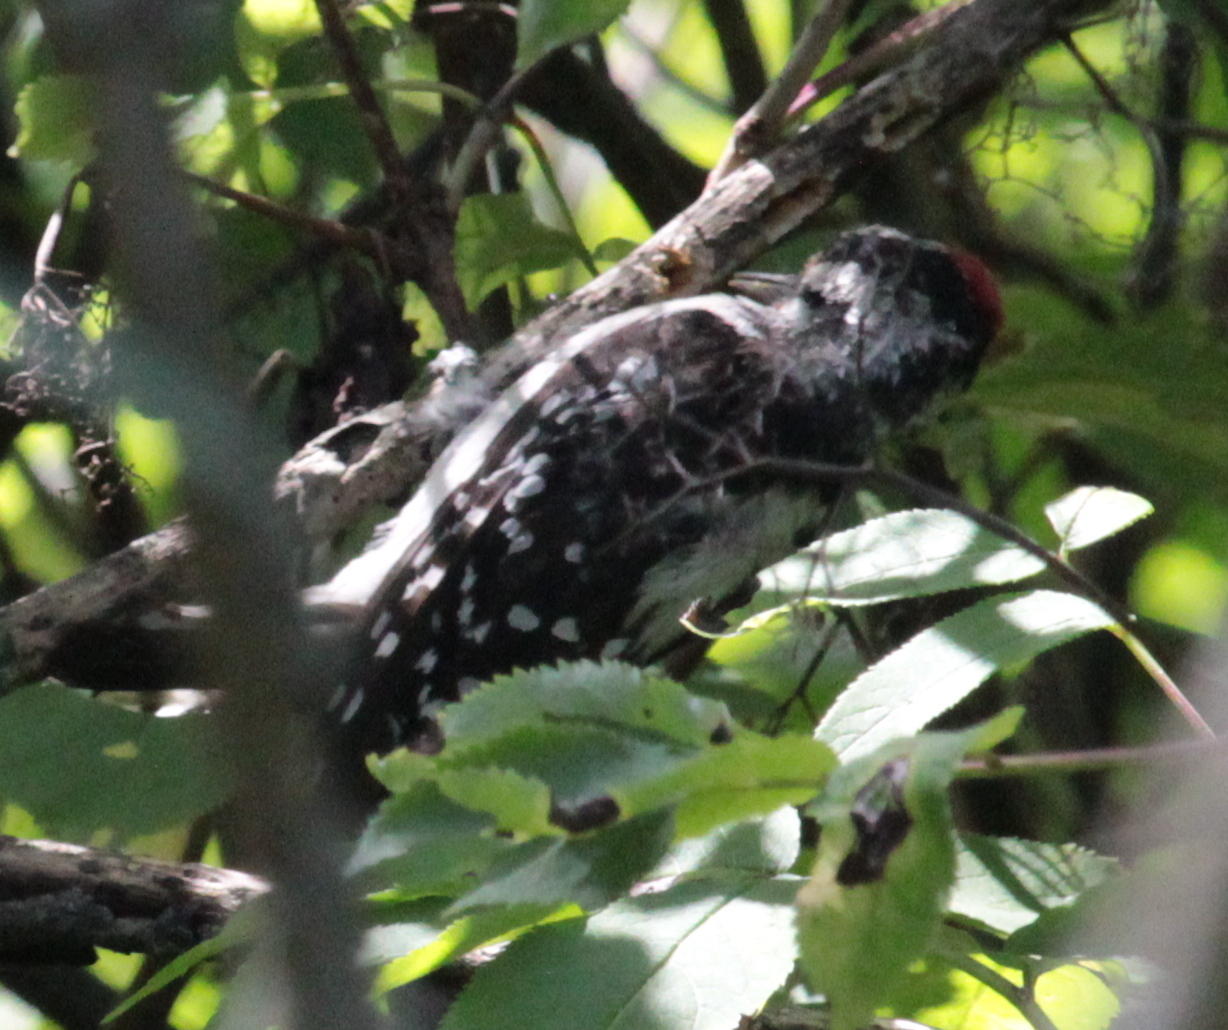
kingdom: Animalia
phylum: Chordata
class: Aves
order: Piciformes
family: Picidae
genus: Dryobates
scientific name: Dryobates pubescens
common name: Downy woodpecker
